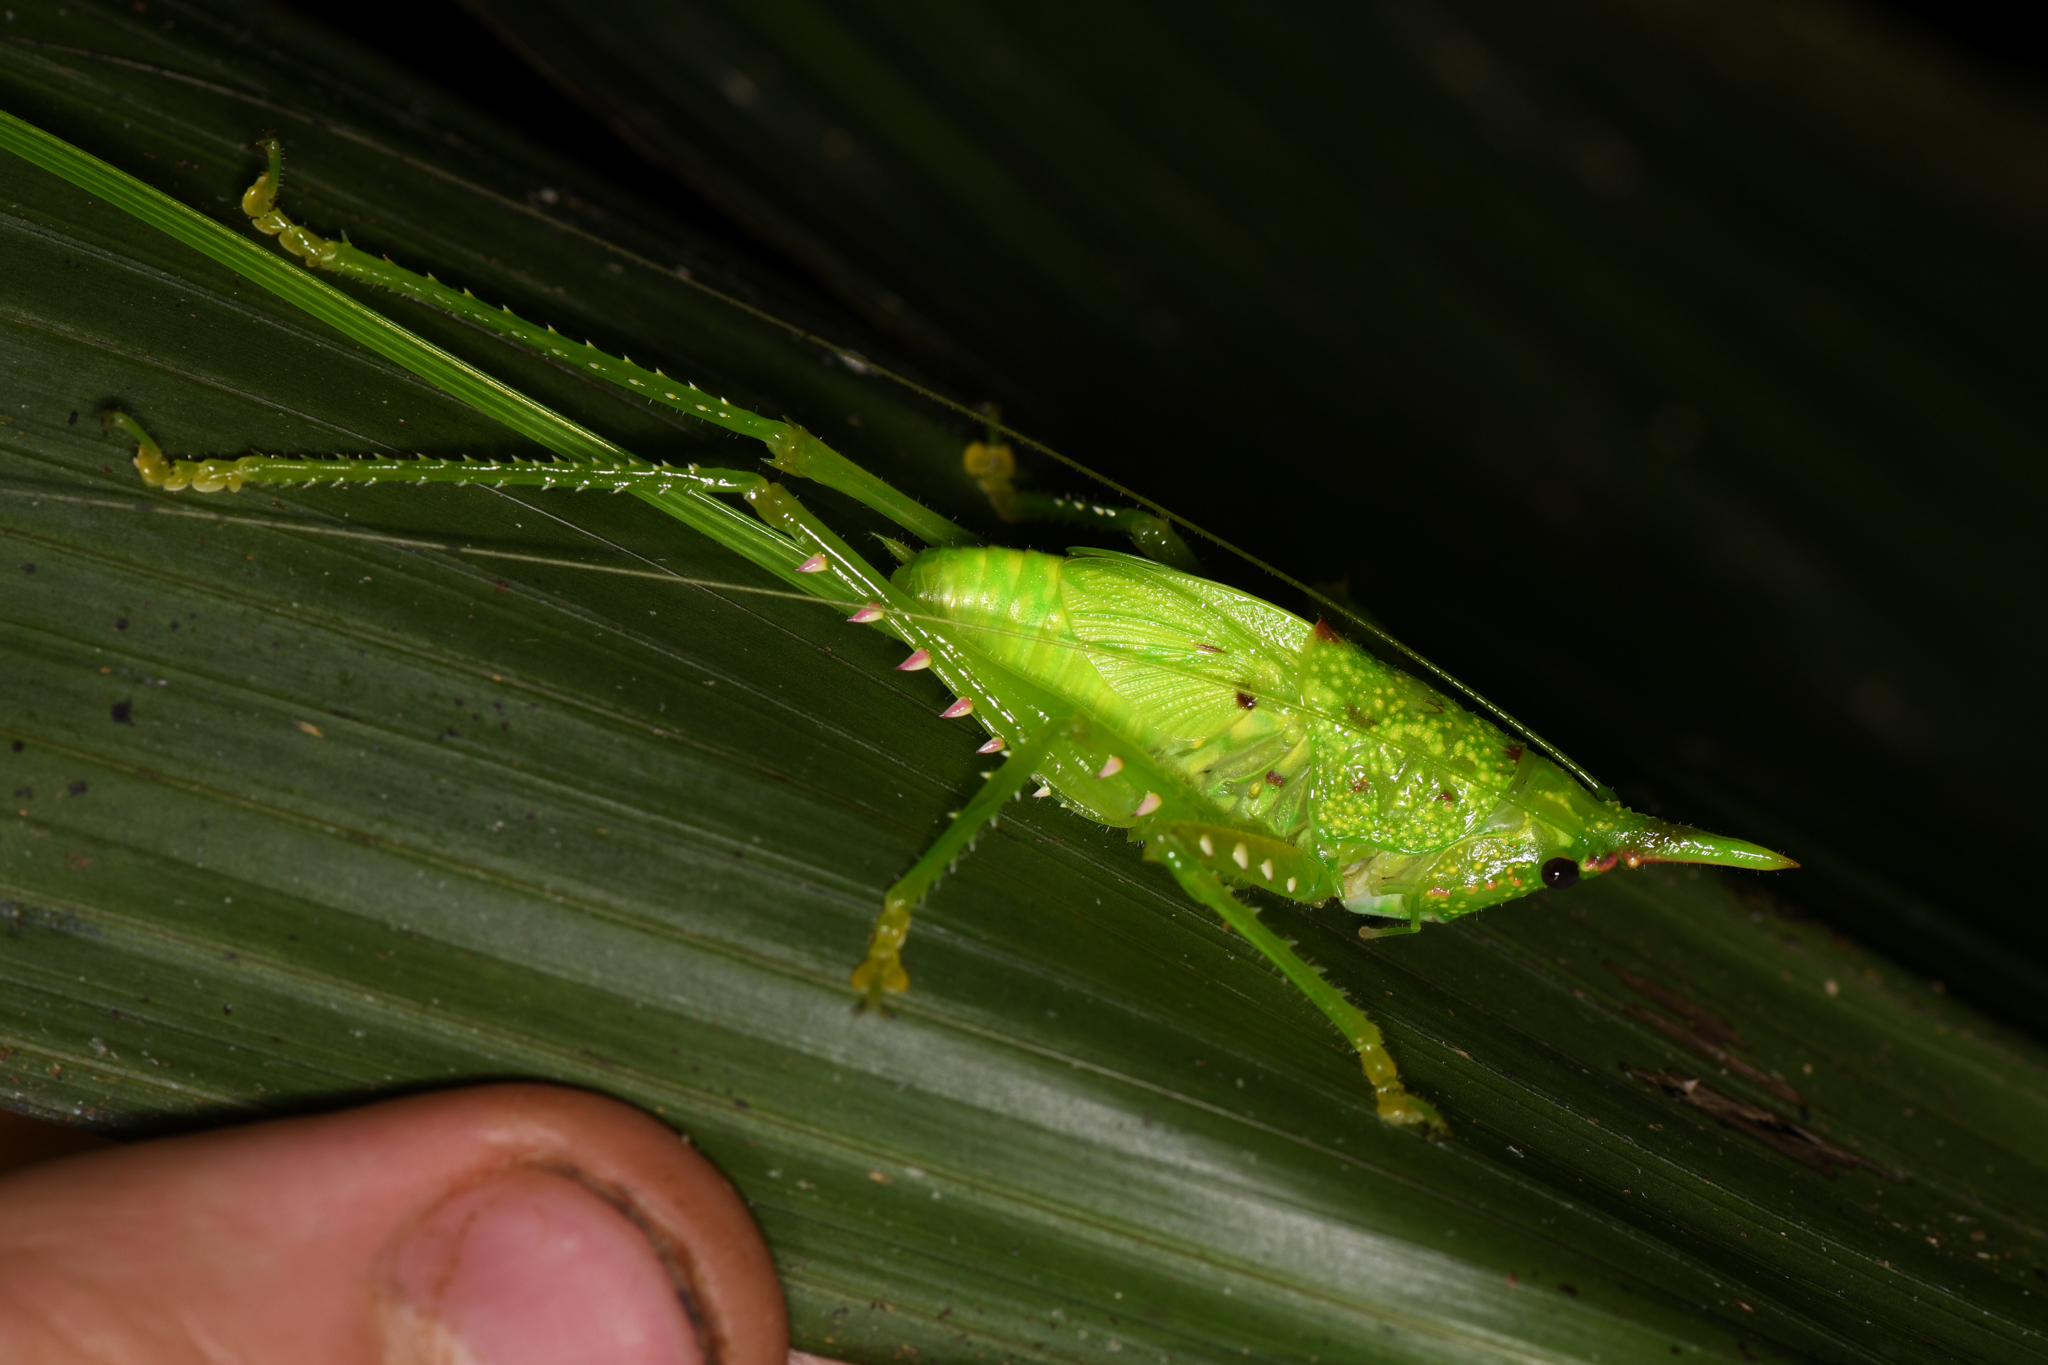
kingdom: Animalia
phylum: Arthropoda
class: Insecta
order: Orthoptera
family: Tettigoniidae
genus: Copiphora
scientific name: Copiphora rhinoceros
